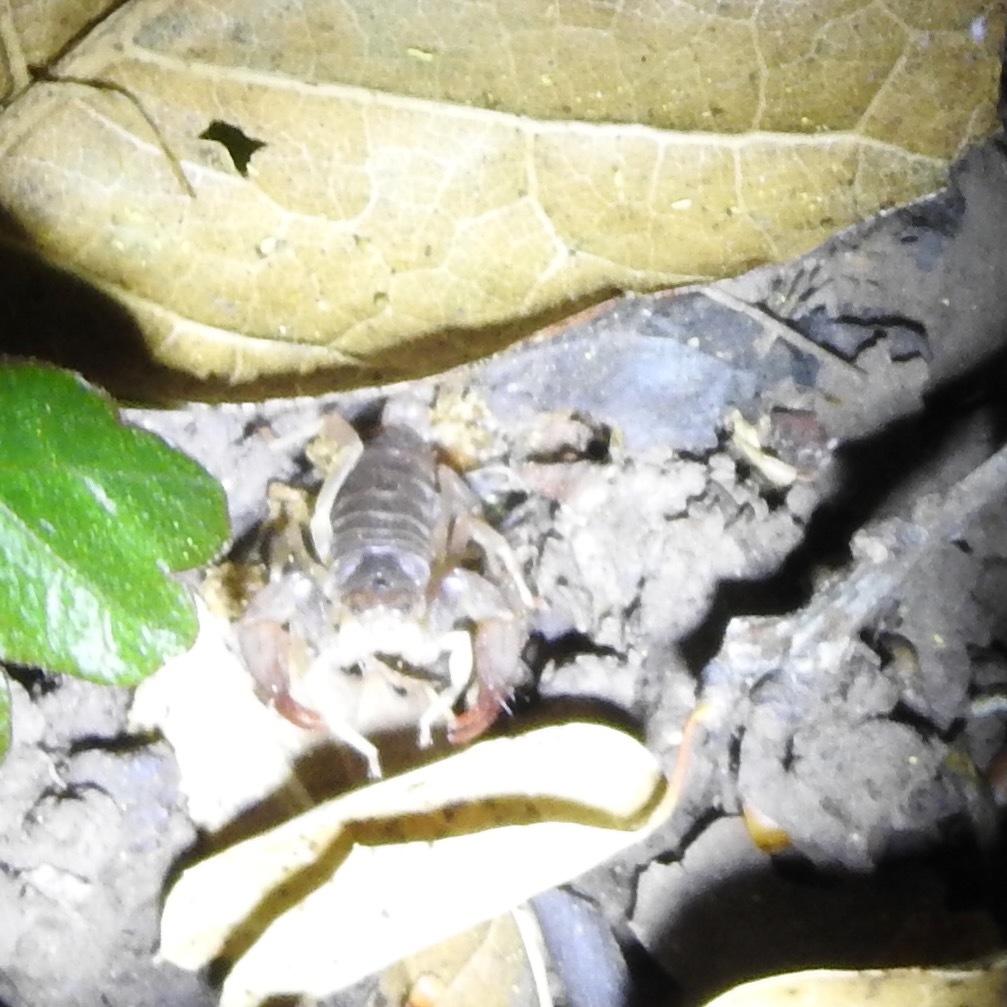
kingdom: Animalia
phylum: Arthropoda
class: Arachnida
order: Scorpiones
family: Chactidae
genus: Uroctonus
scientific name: Uroctonus mordax
